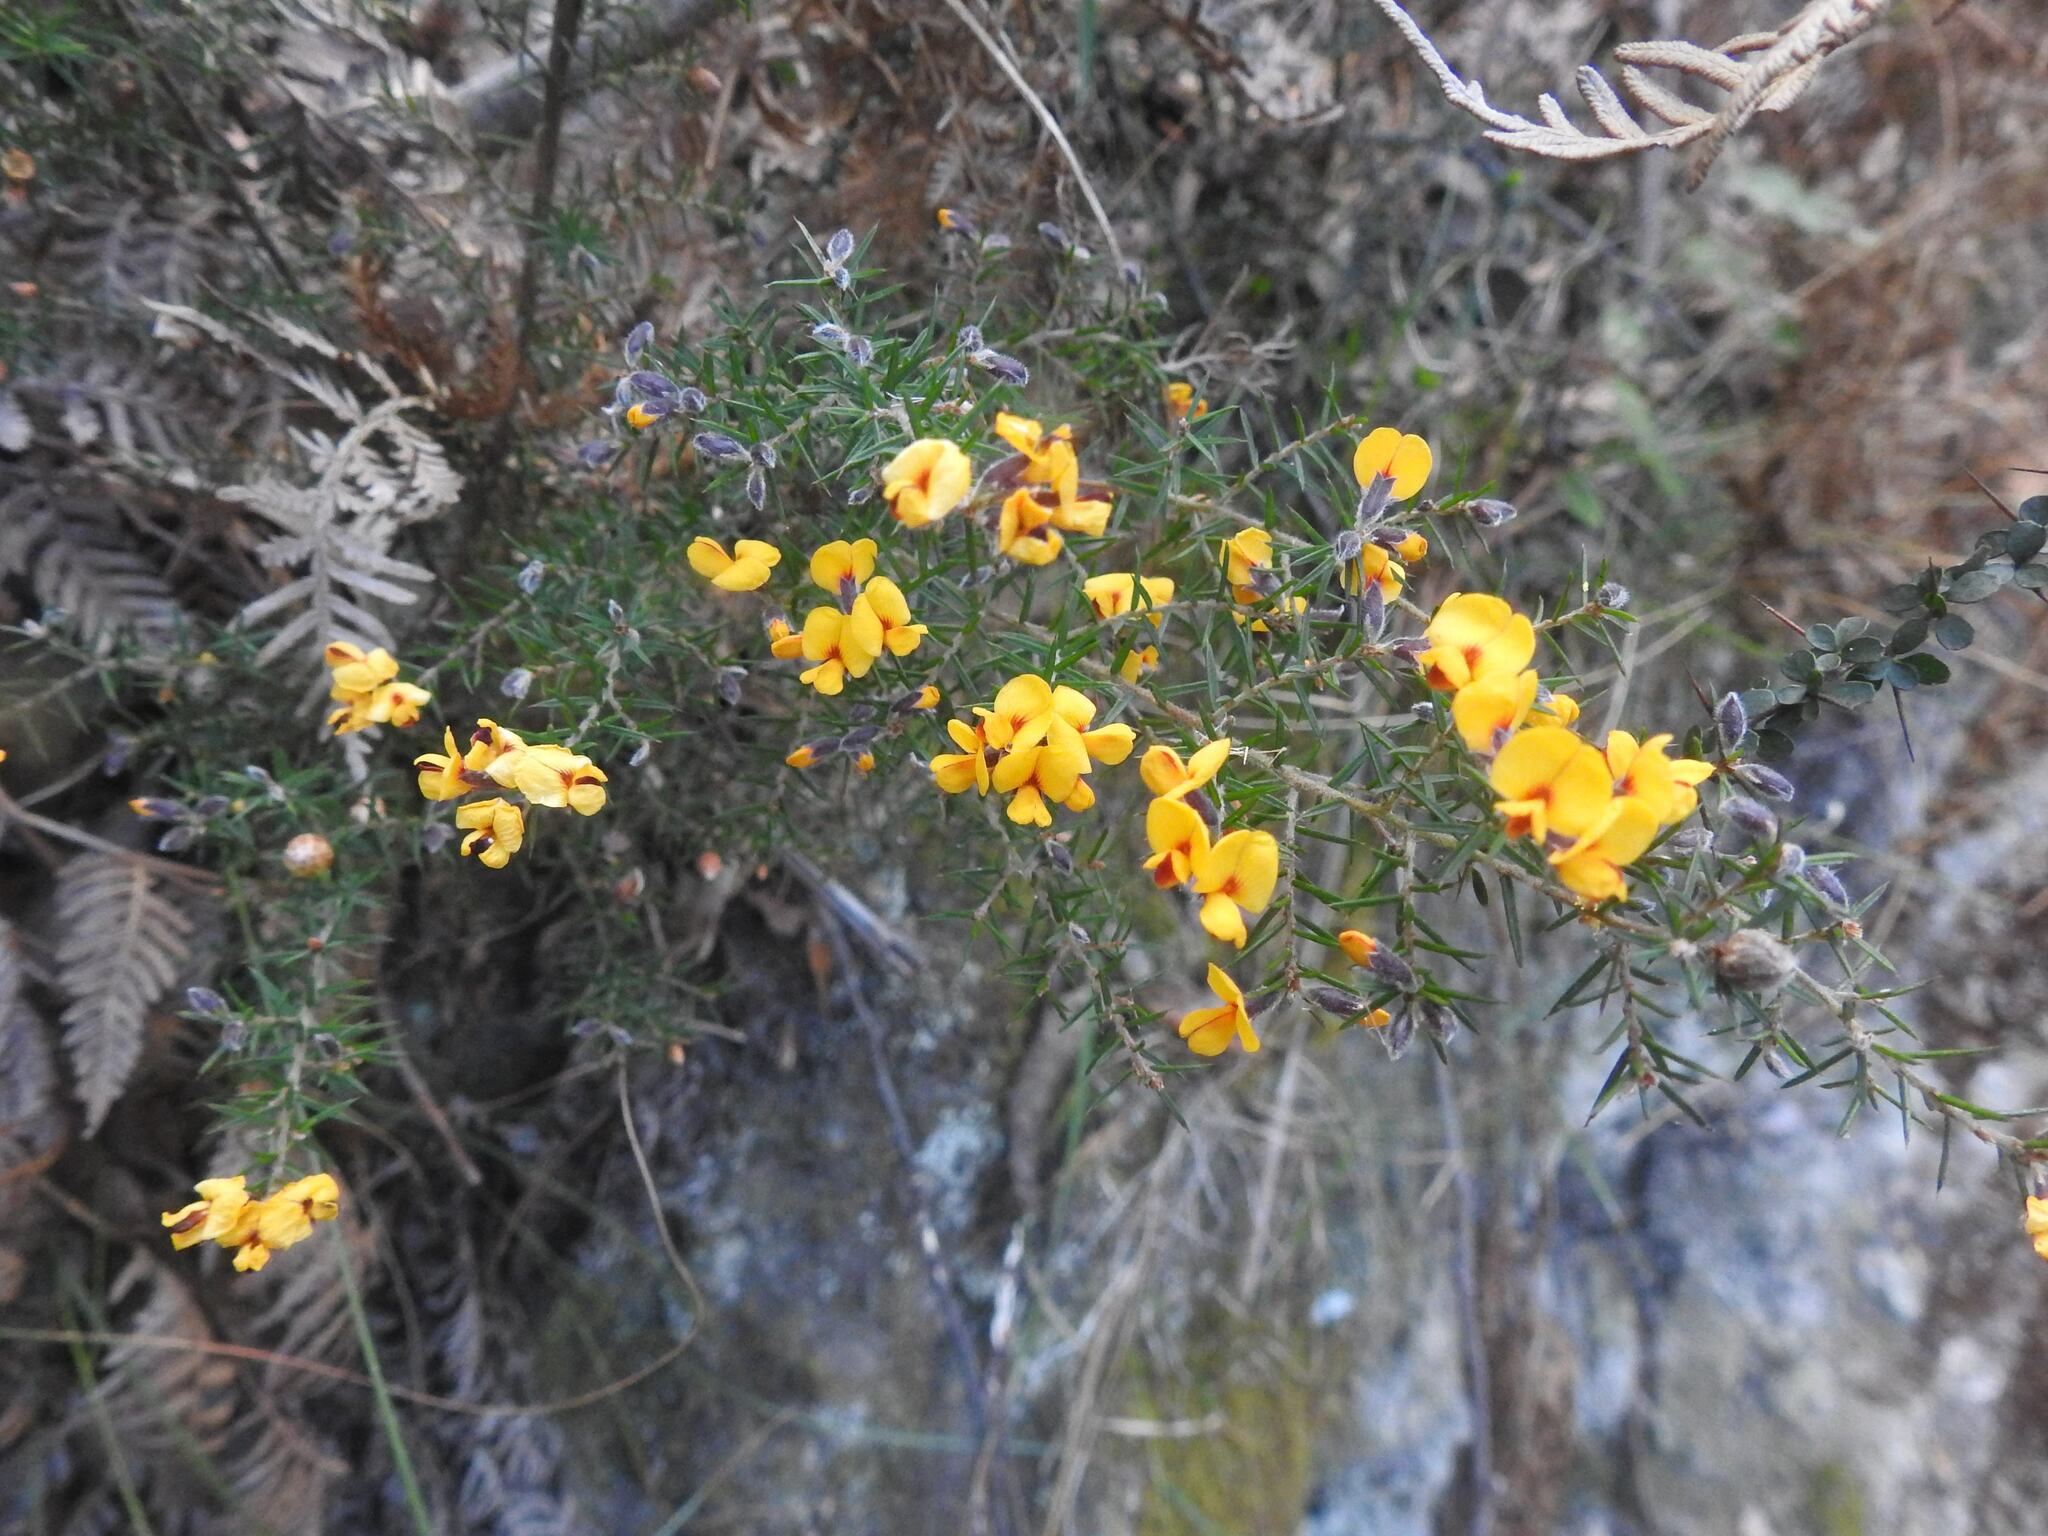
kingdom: Plantae
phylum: Tracheophyta
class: Magnoliopsida
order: Fabales
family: Fabaceae
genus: Pultenaea
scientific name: Pultenaea juniperina
